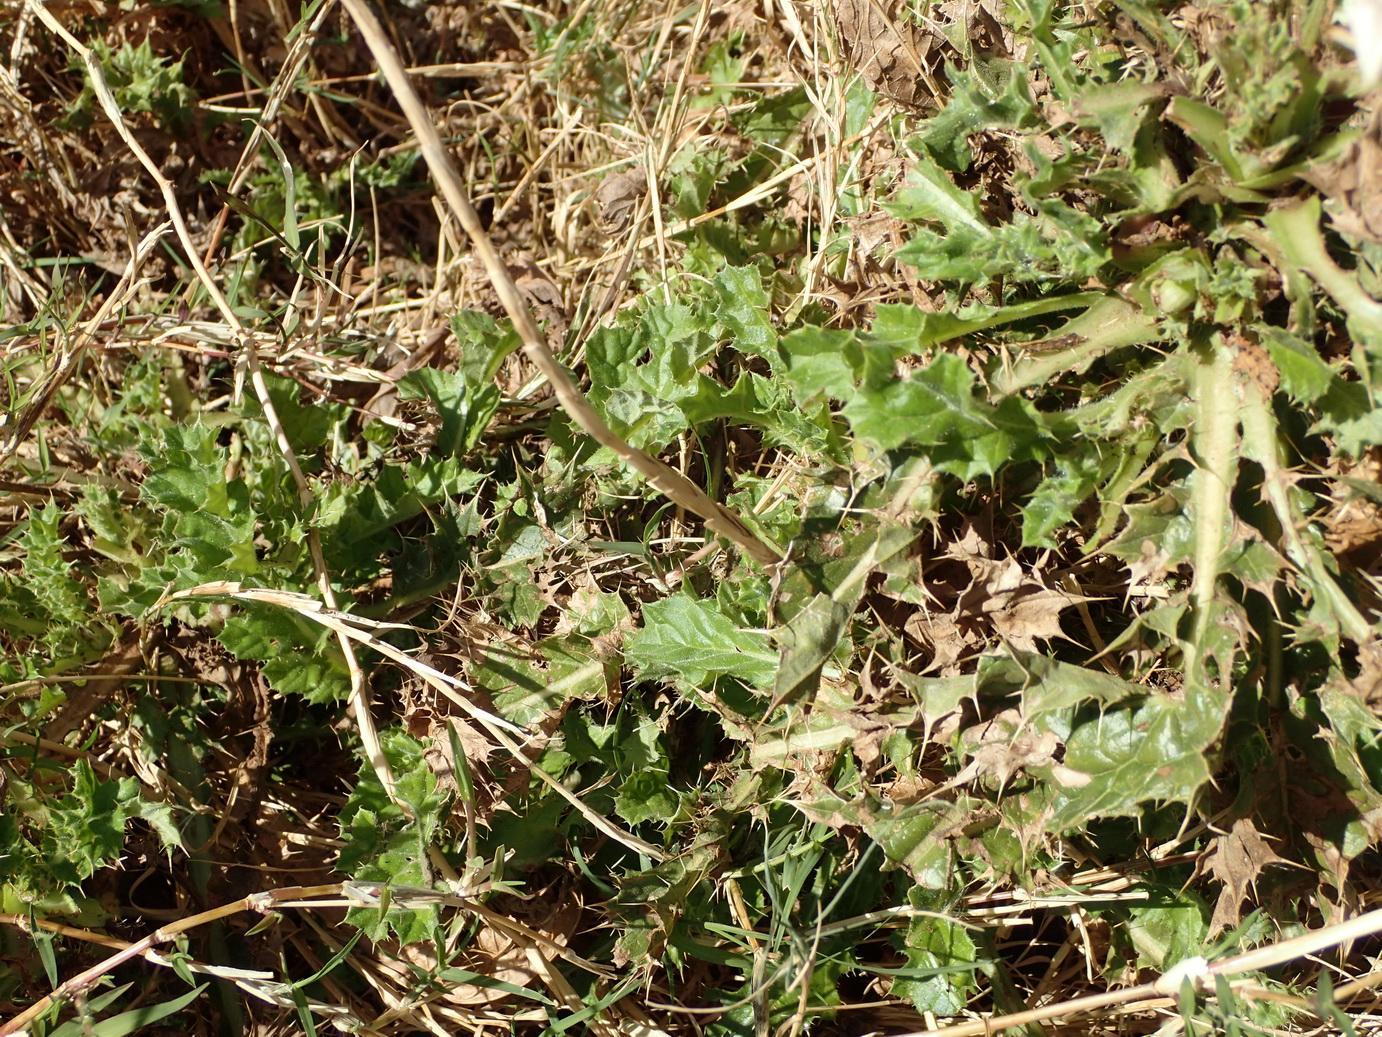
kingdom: Plantae
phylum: Tracheophyta
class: Magnoliopsida
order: Asterales
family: Asteraceae
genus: Berkheya
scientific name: Berkheya onobromoides
